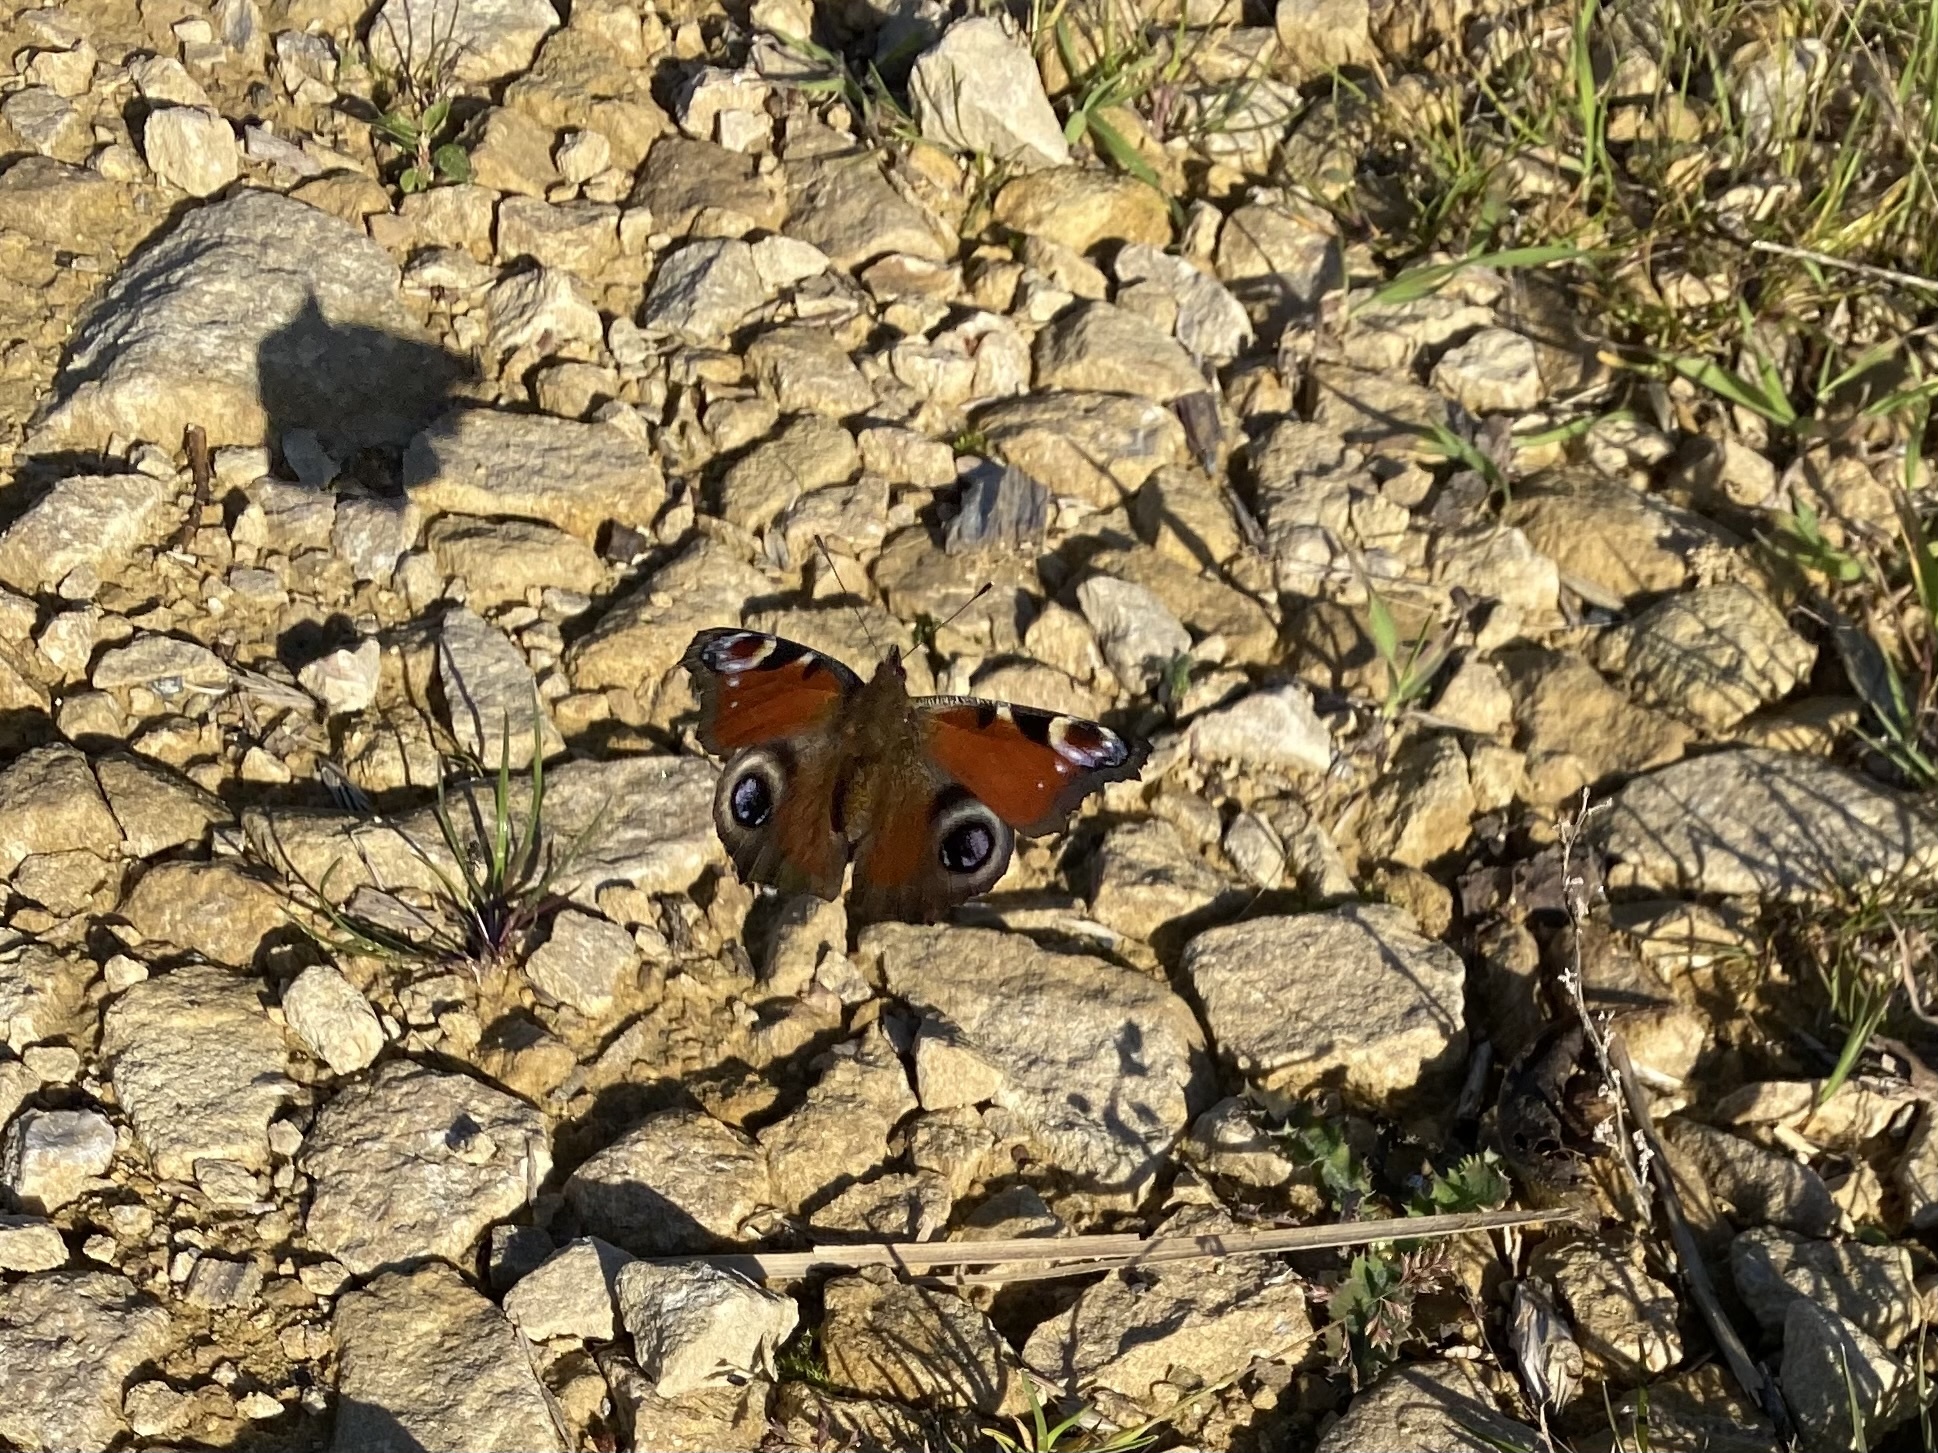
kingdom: Animalia
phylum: Arthropoda
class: Insecta
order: Lepidoptera
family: Nymphalidae
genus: Aglais
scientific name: Aglais io
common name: Peacock
